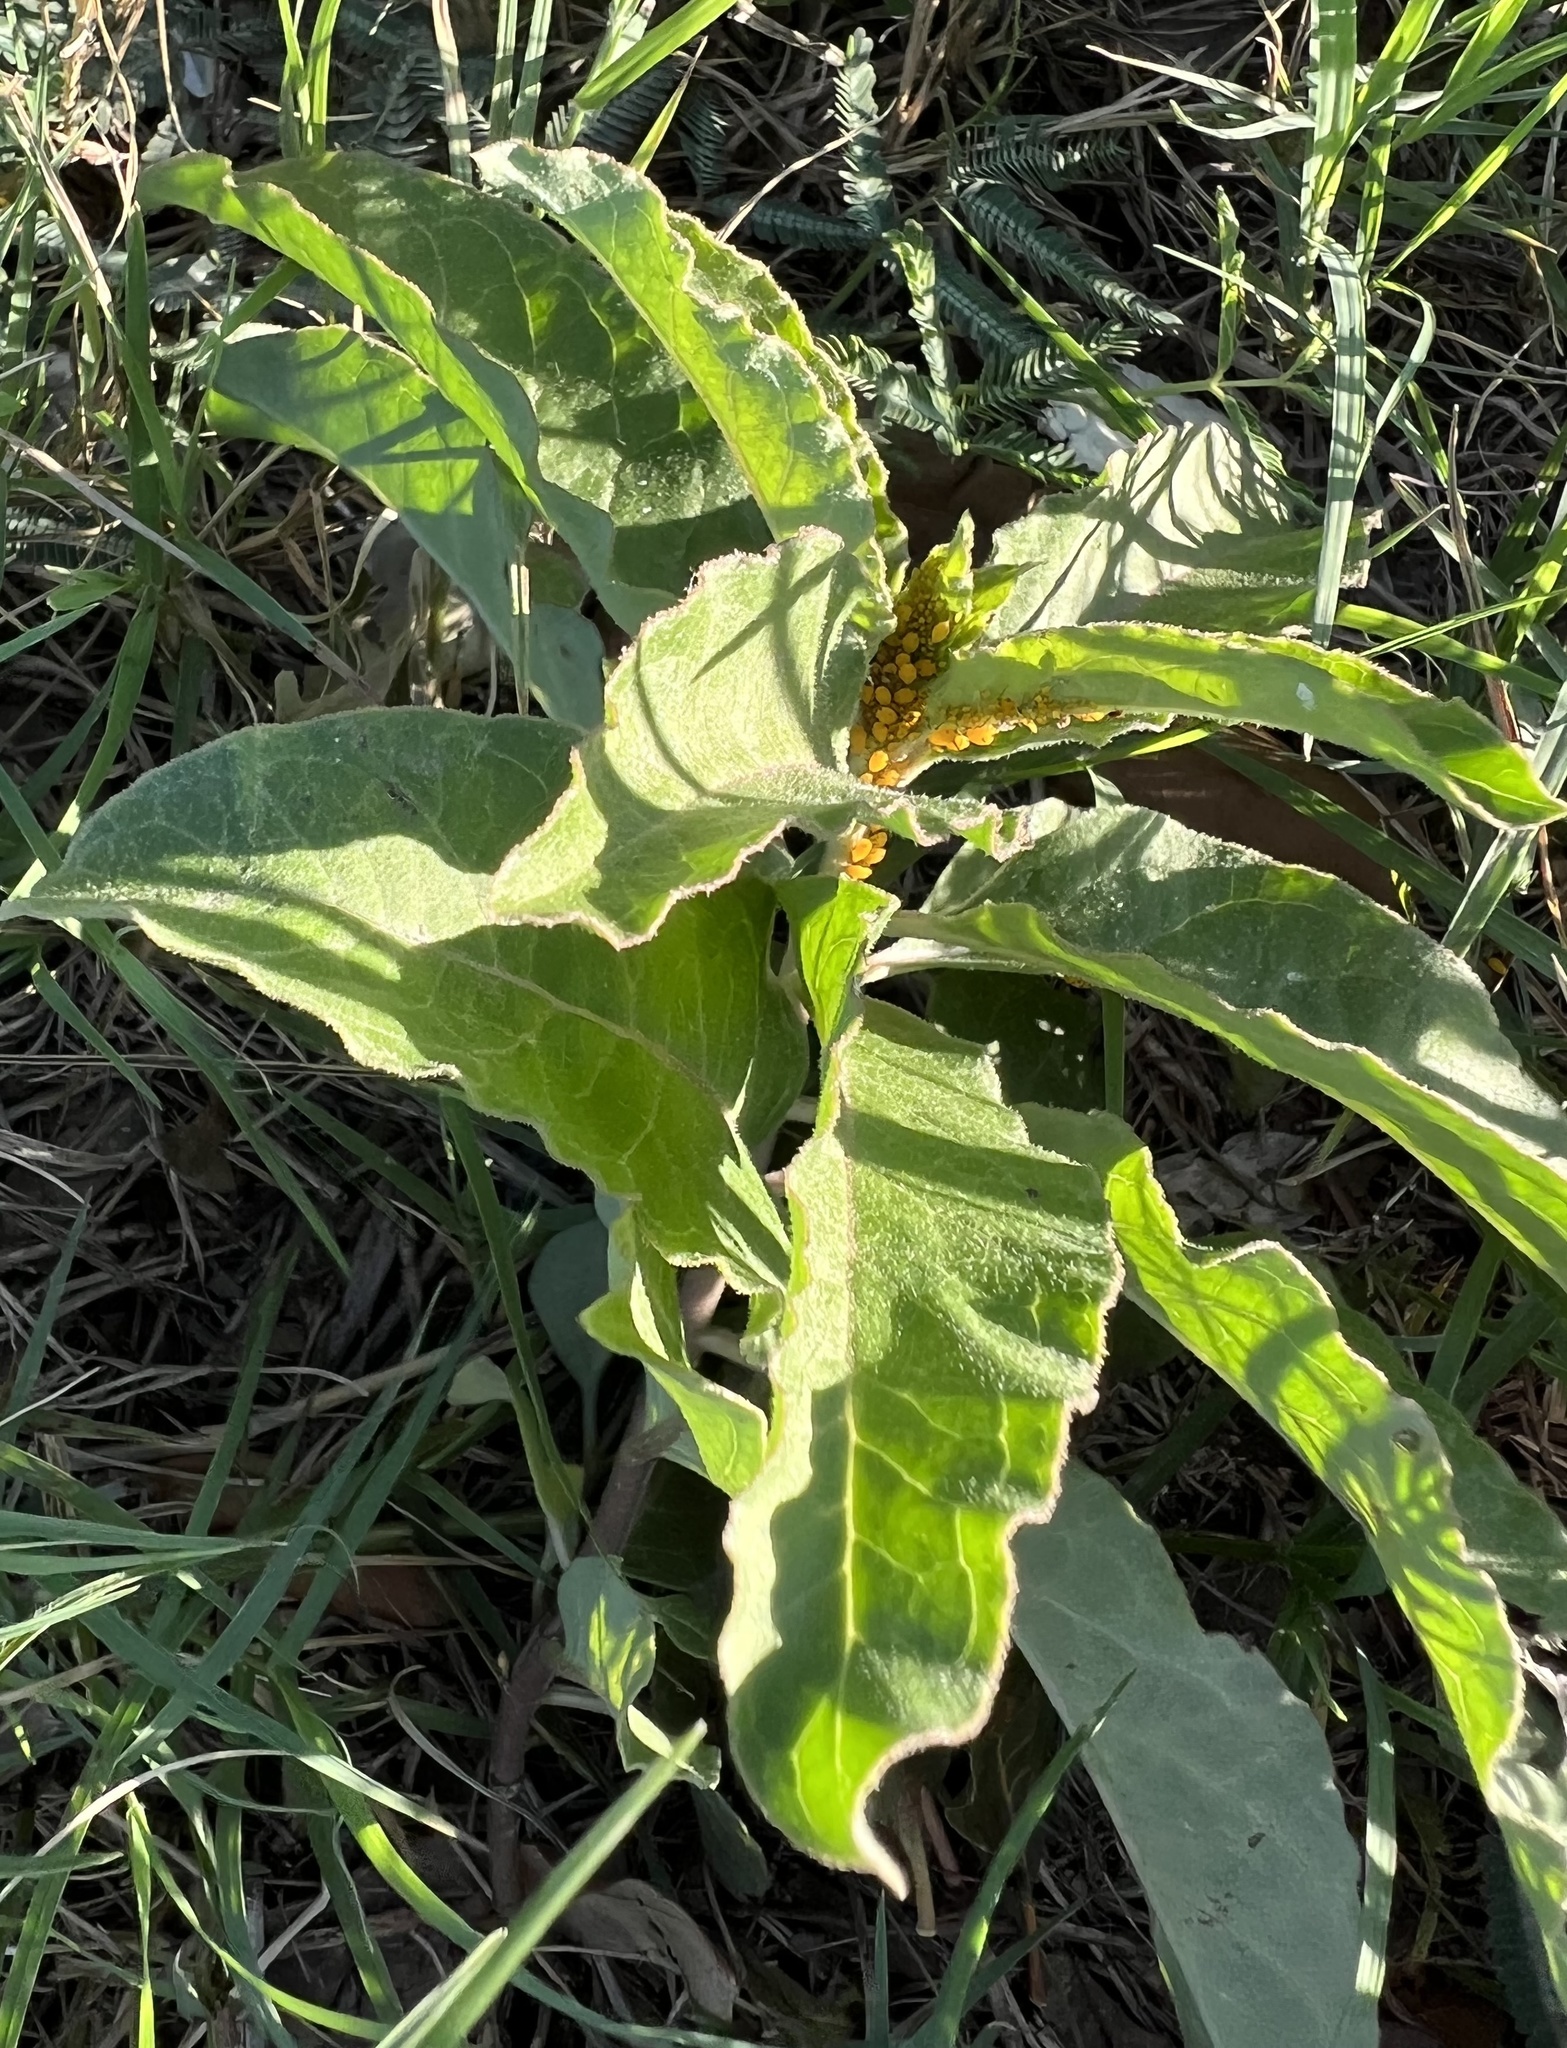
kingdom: Plantae
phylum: Tracheophyta
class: Magnoliopsida
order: Gentianales
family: Apocynaceae
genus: Asclepias
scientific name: Asclepias oenotheroides
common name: Zizotes milkweed
